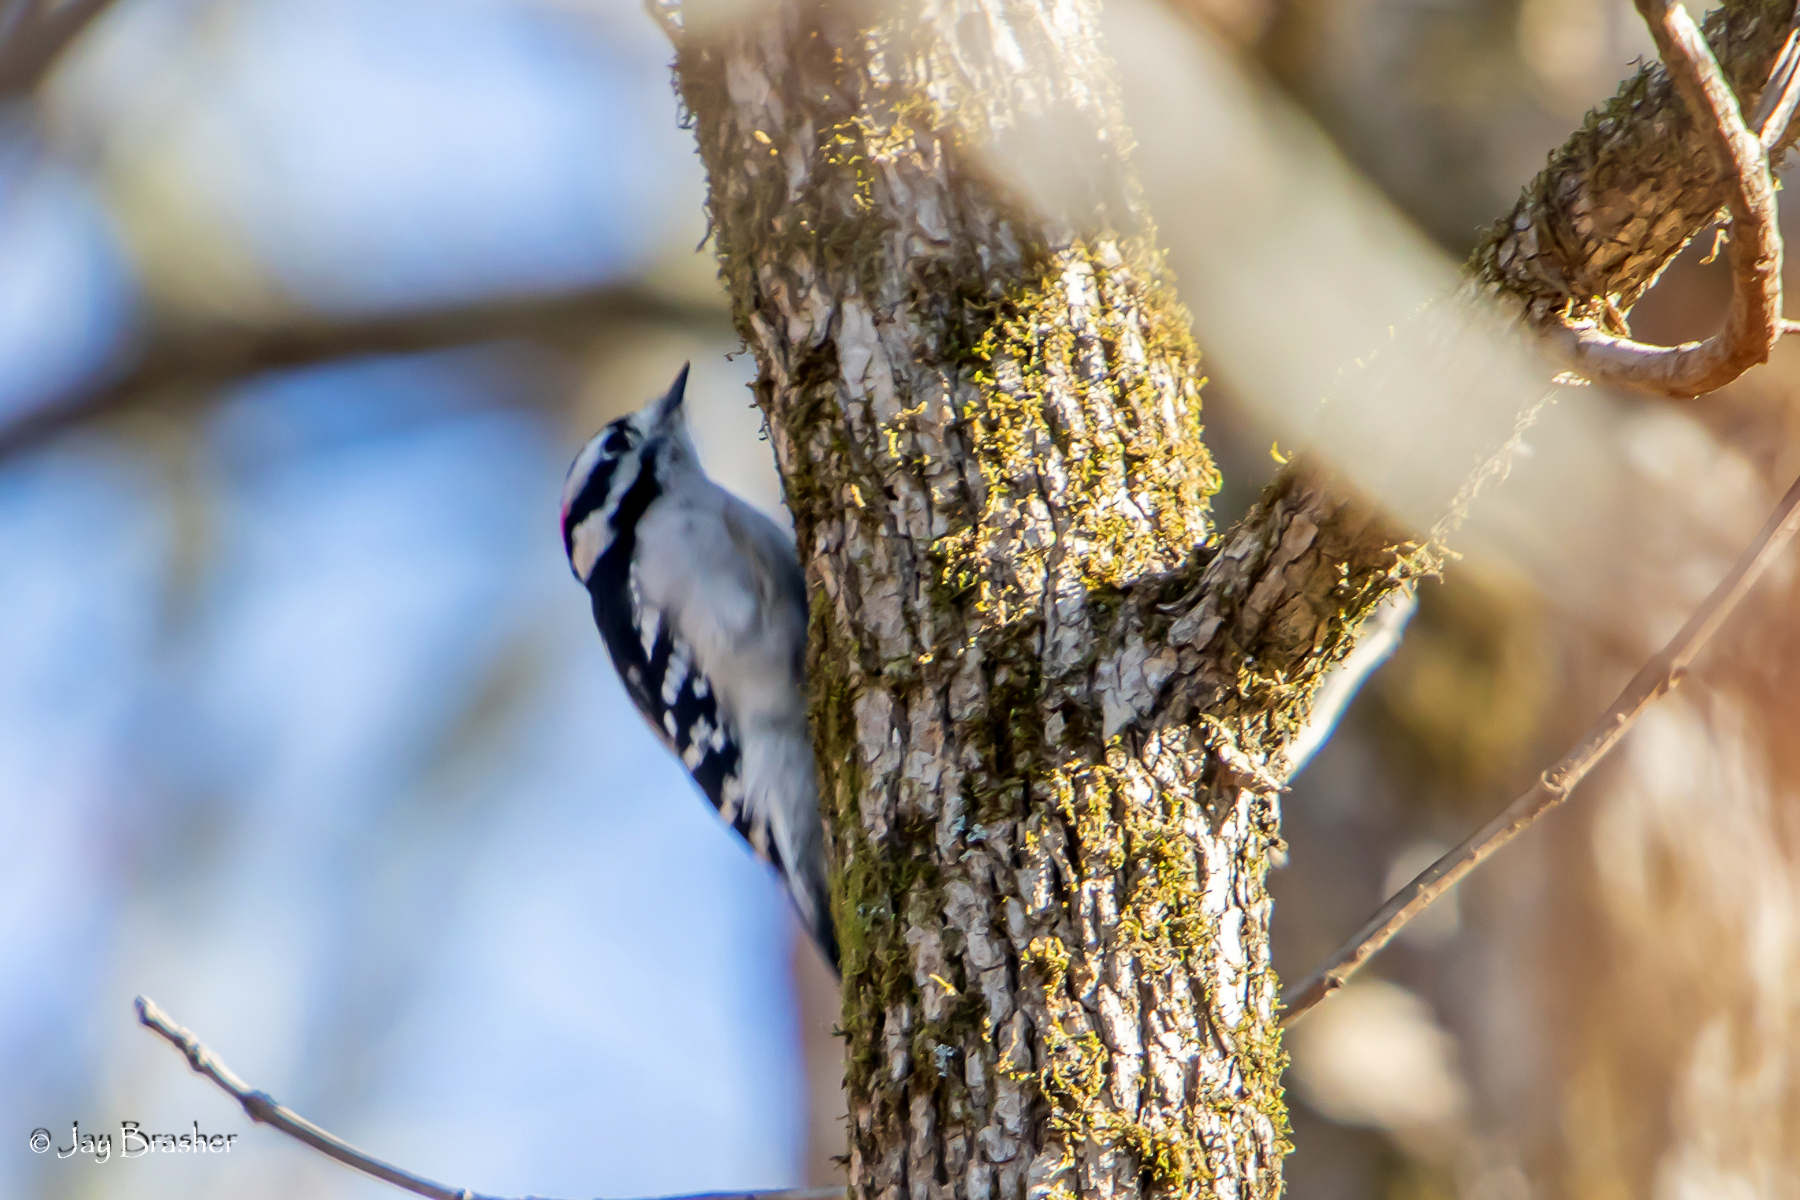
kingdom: Animalia
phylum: Chordata
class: Aves
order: Piciformes
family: Picidae
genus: Dryobates
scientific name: Dryobates pubescens
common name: Downy woodpecker
